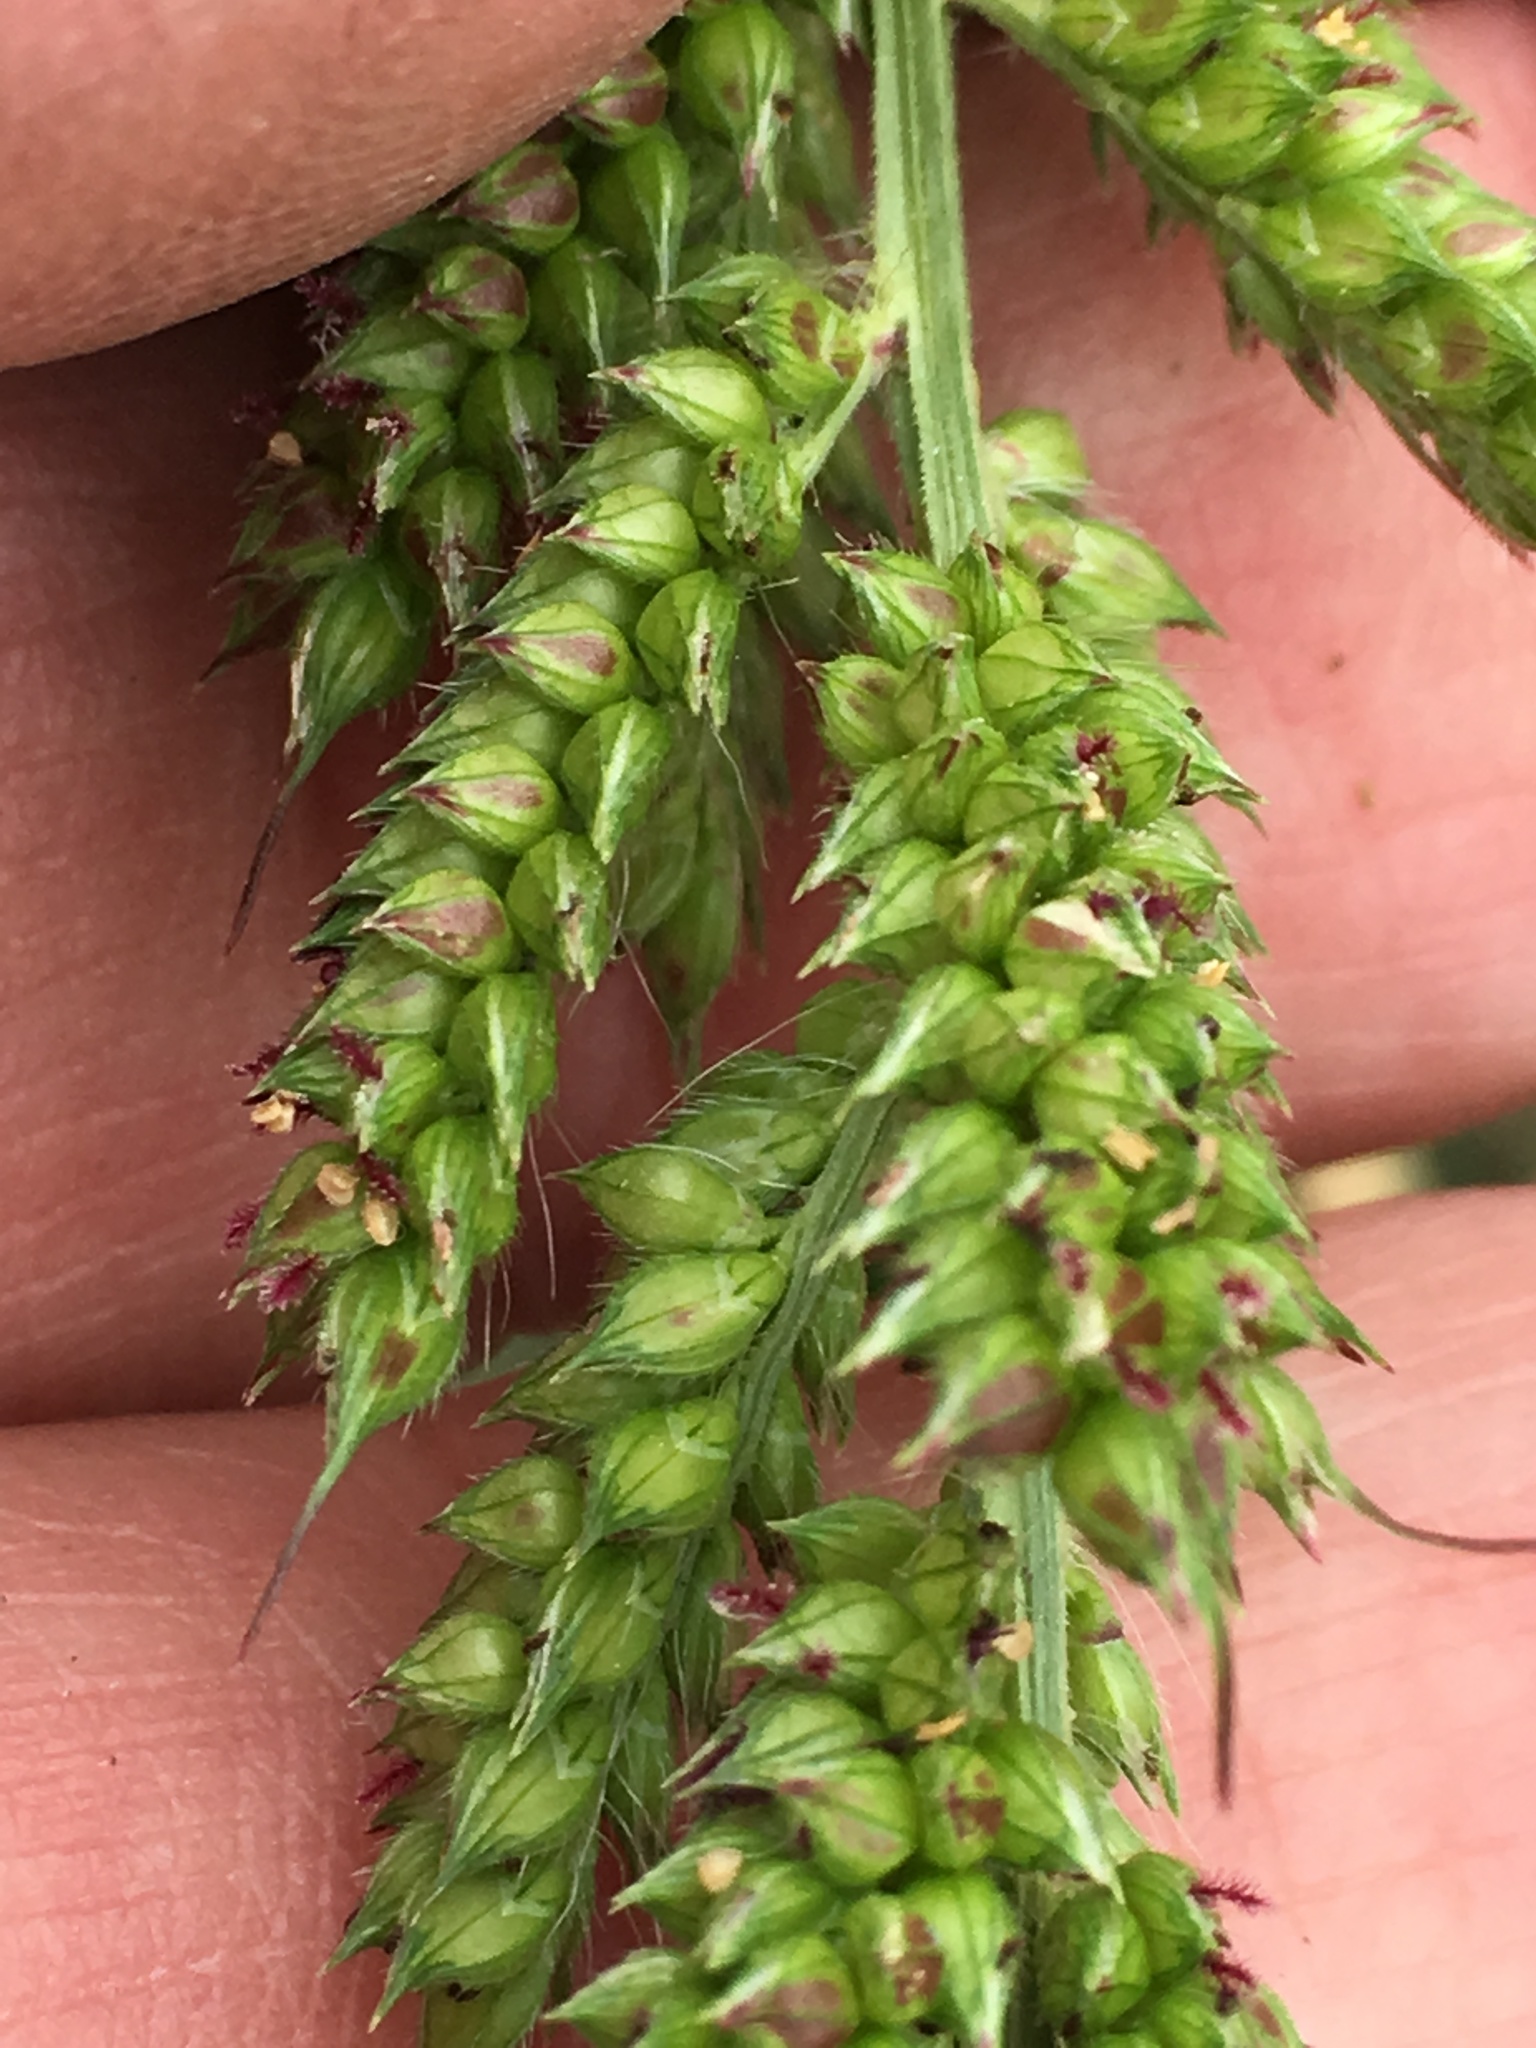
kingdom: Plantae
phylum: Tracheophyta
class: Liliopsida
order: Poales
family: Poaceae
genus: Echinochloa
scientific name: Echinochloa muricata
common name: American barnyard grass
